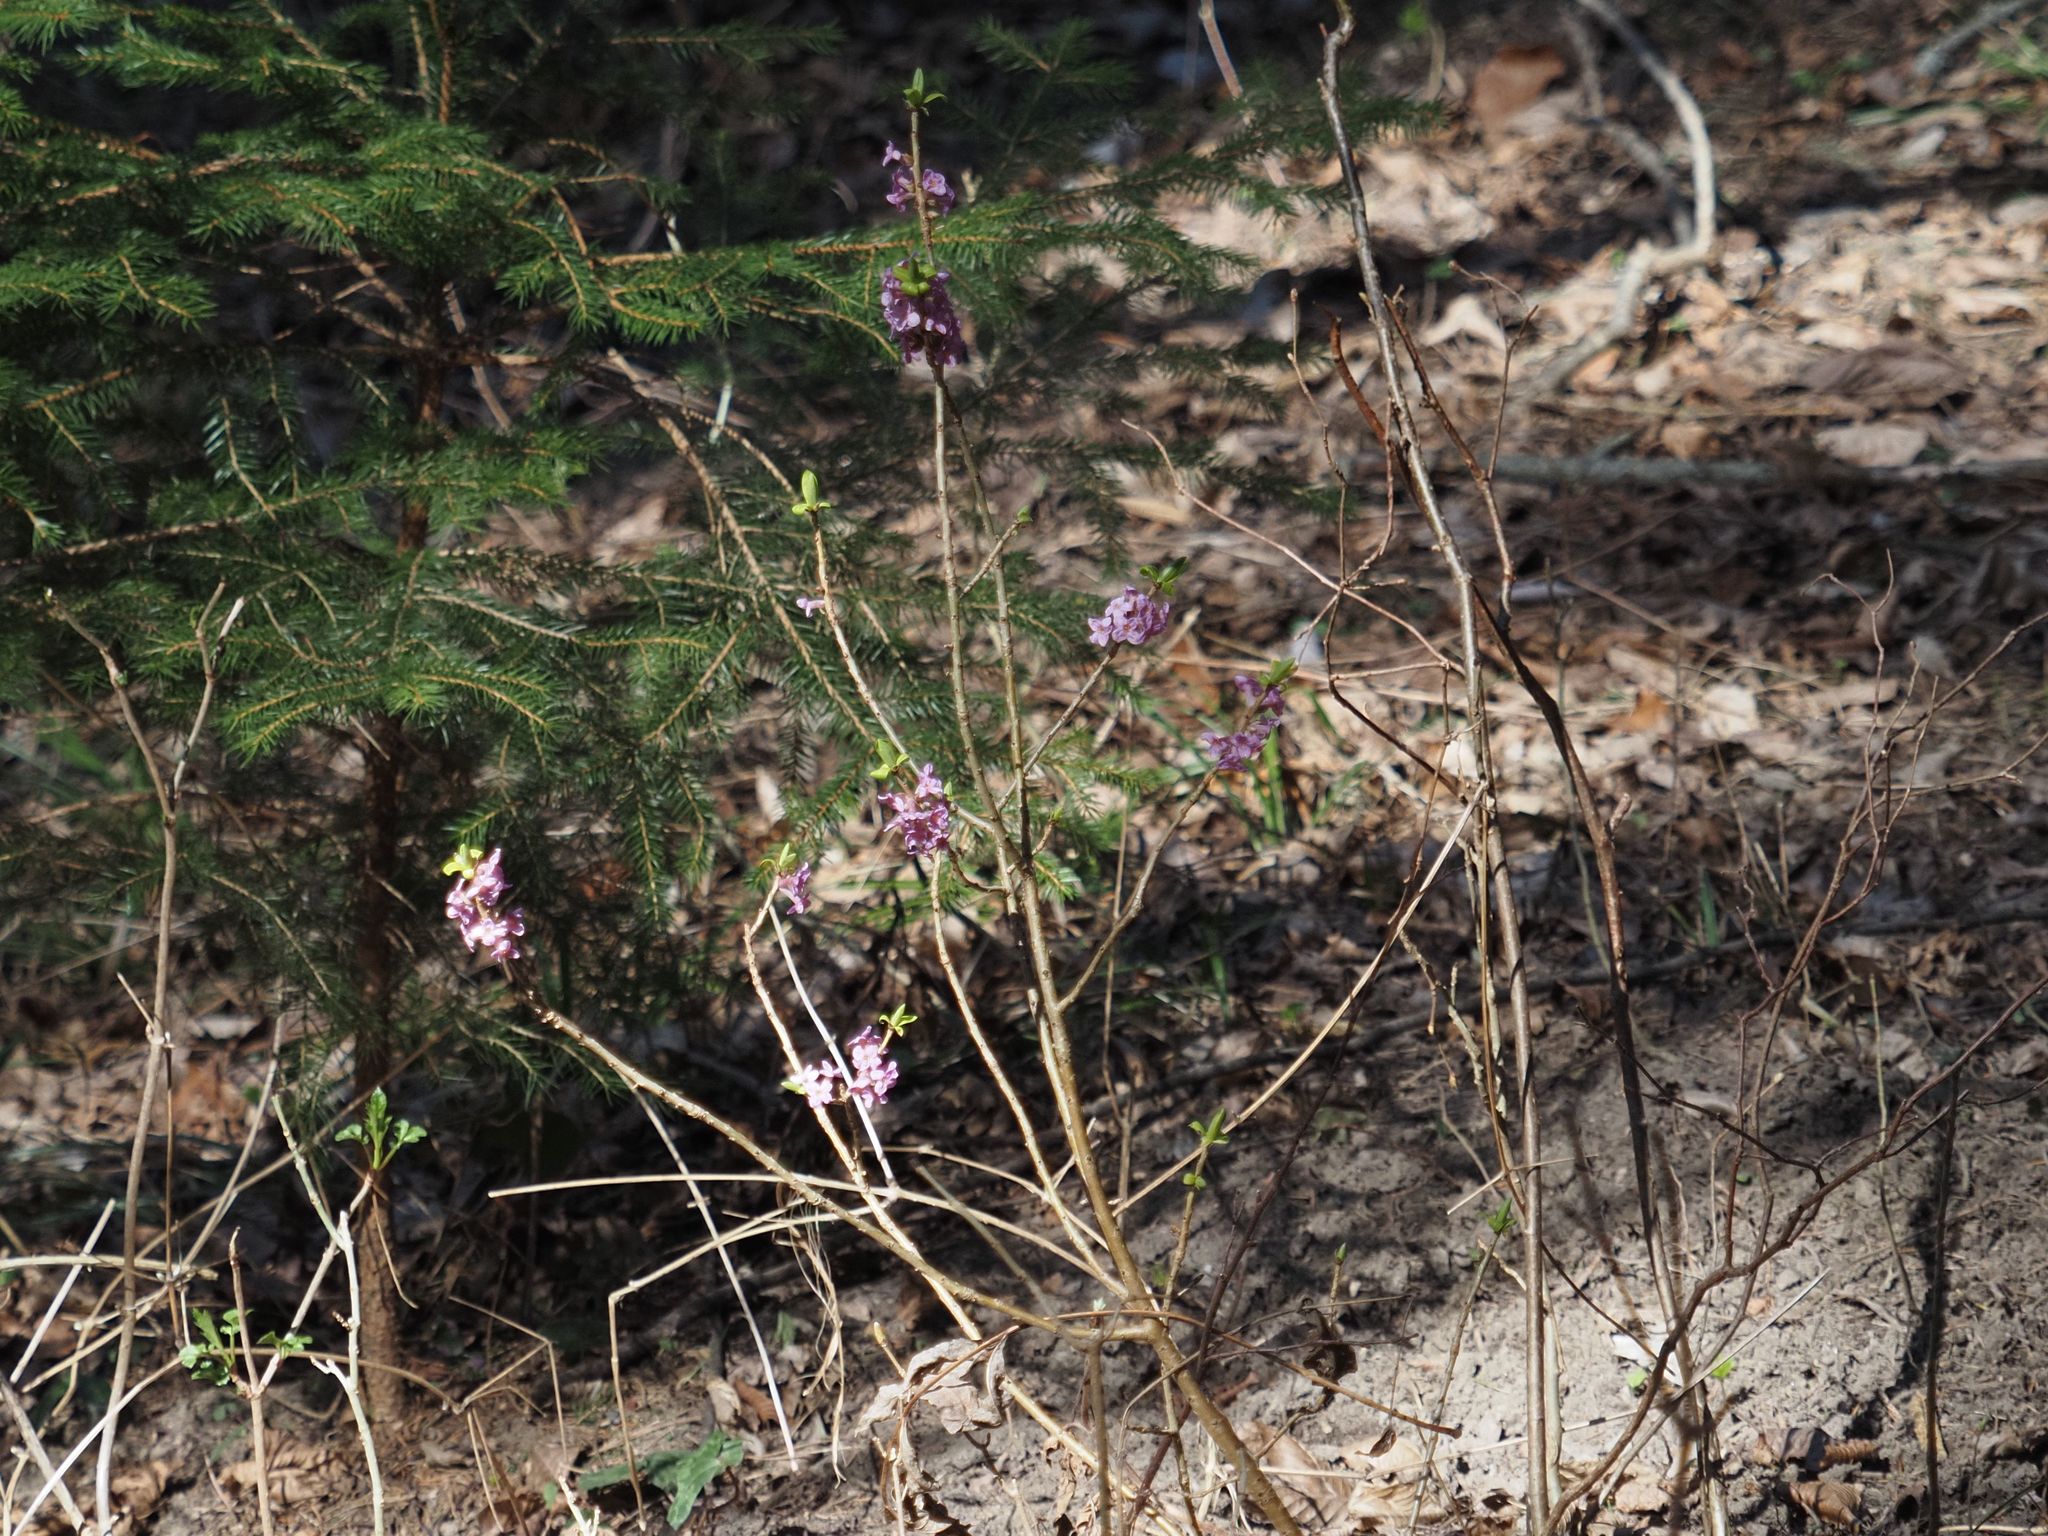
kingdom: Plantae
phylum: Tracheophyta
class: Magnoliopsida
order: Malvales
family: Thymelaeaceae
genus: Daphne
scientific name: Daphne mezereum
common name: Mezereon
